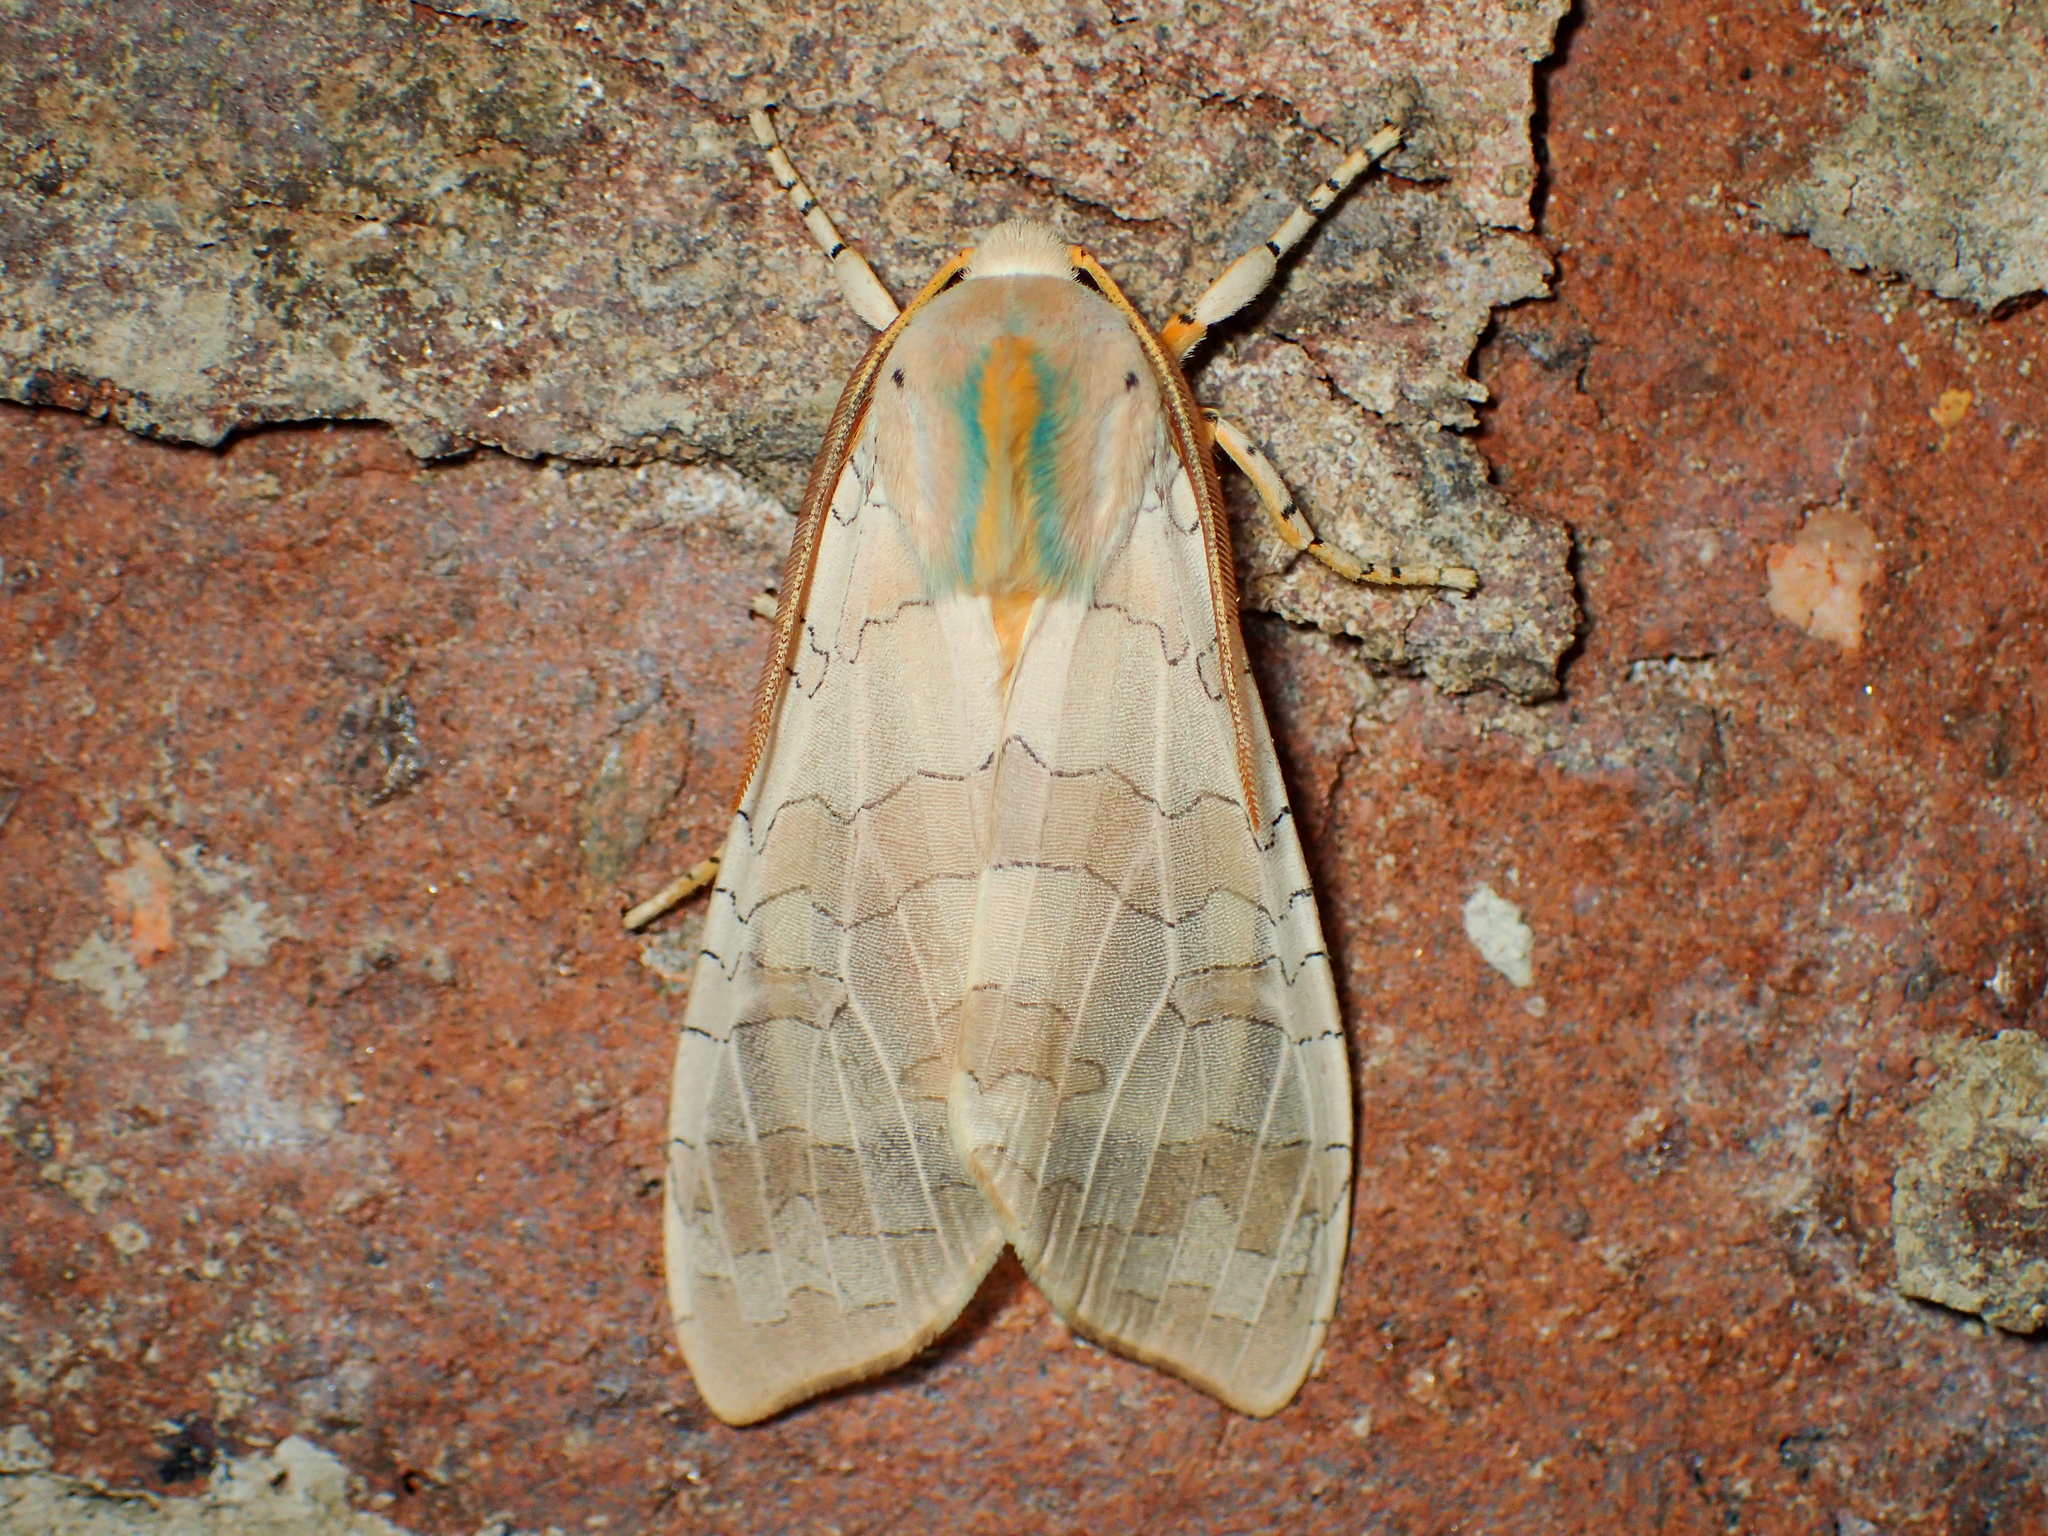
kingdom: Animalia
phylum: Arthropoda
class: Insecta
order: Lepidoptera
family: Erebidae
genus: Halysidota
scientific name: Halysidota
